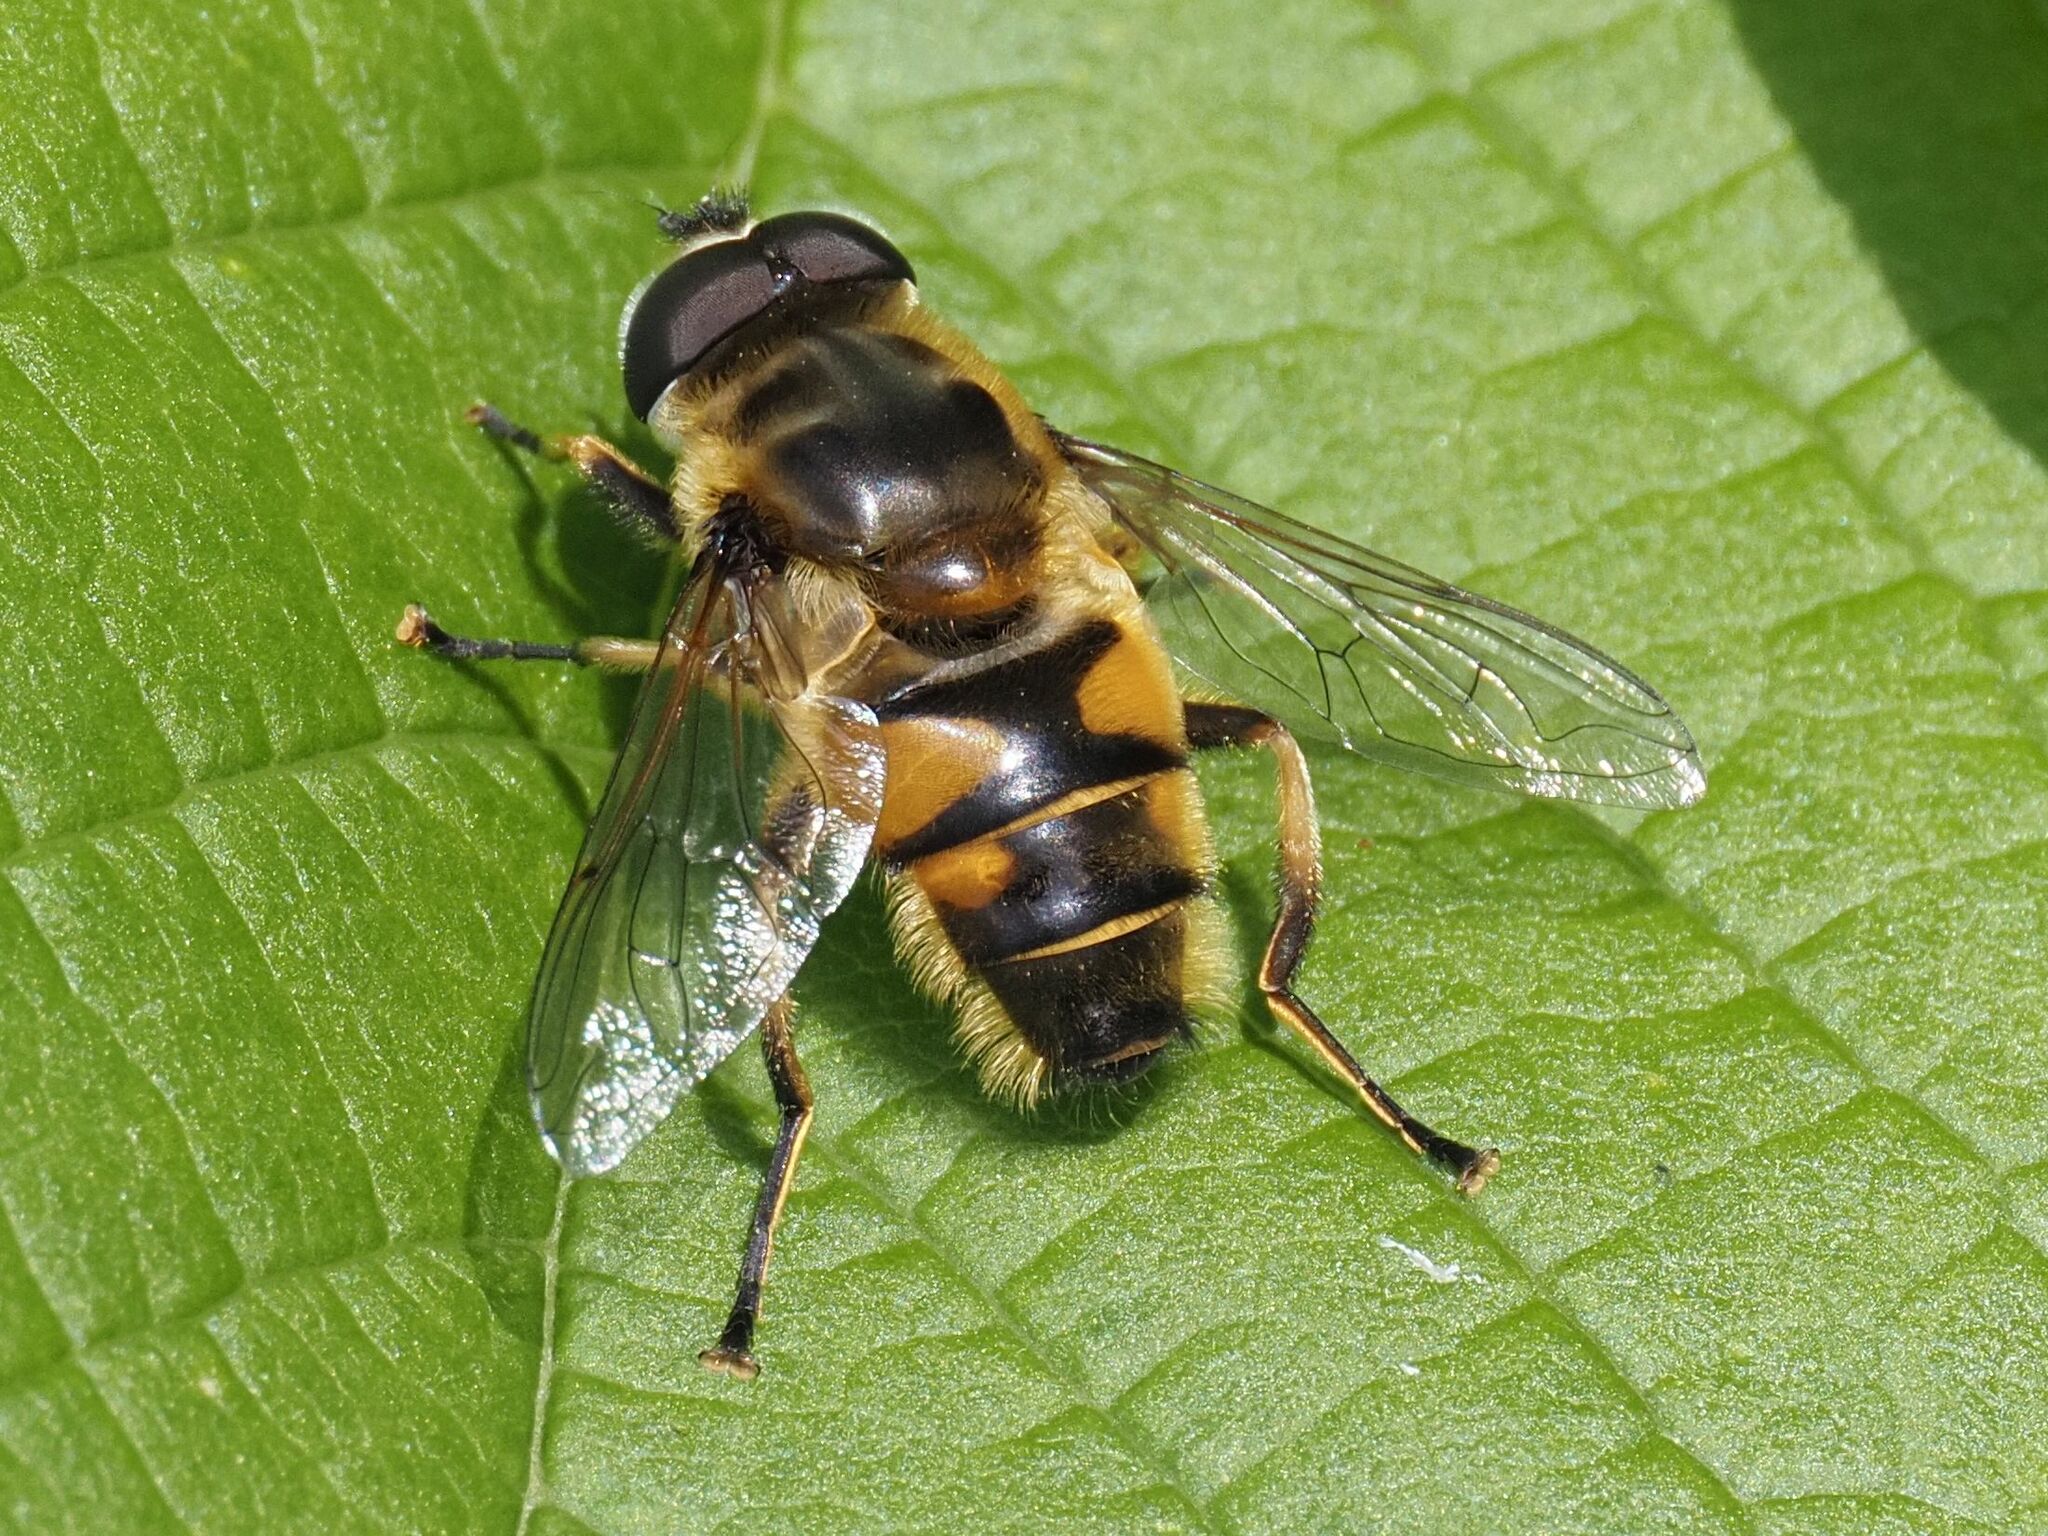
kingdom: Animalia
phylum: Arthropoda
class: Insecta
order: Diptera
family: Syrphidae
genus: Myathropa
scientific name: Myathropa florea
